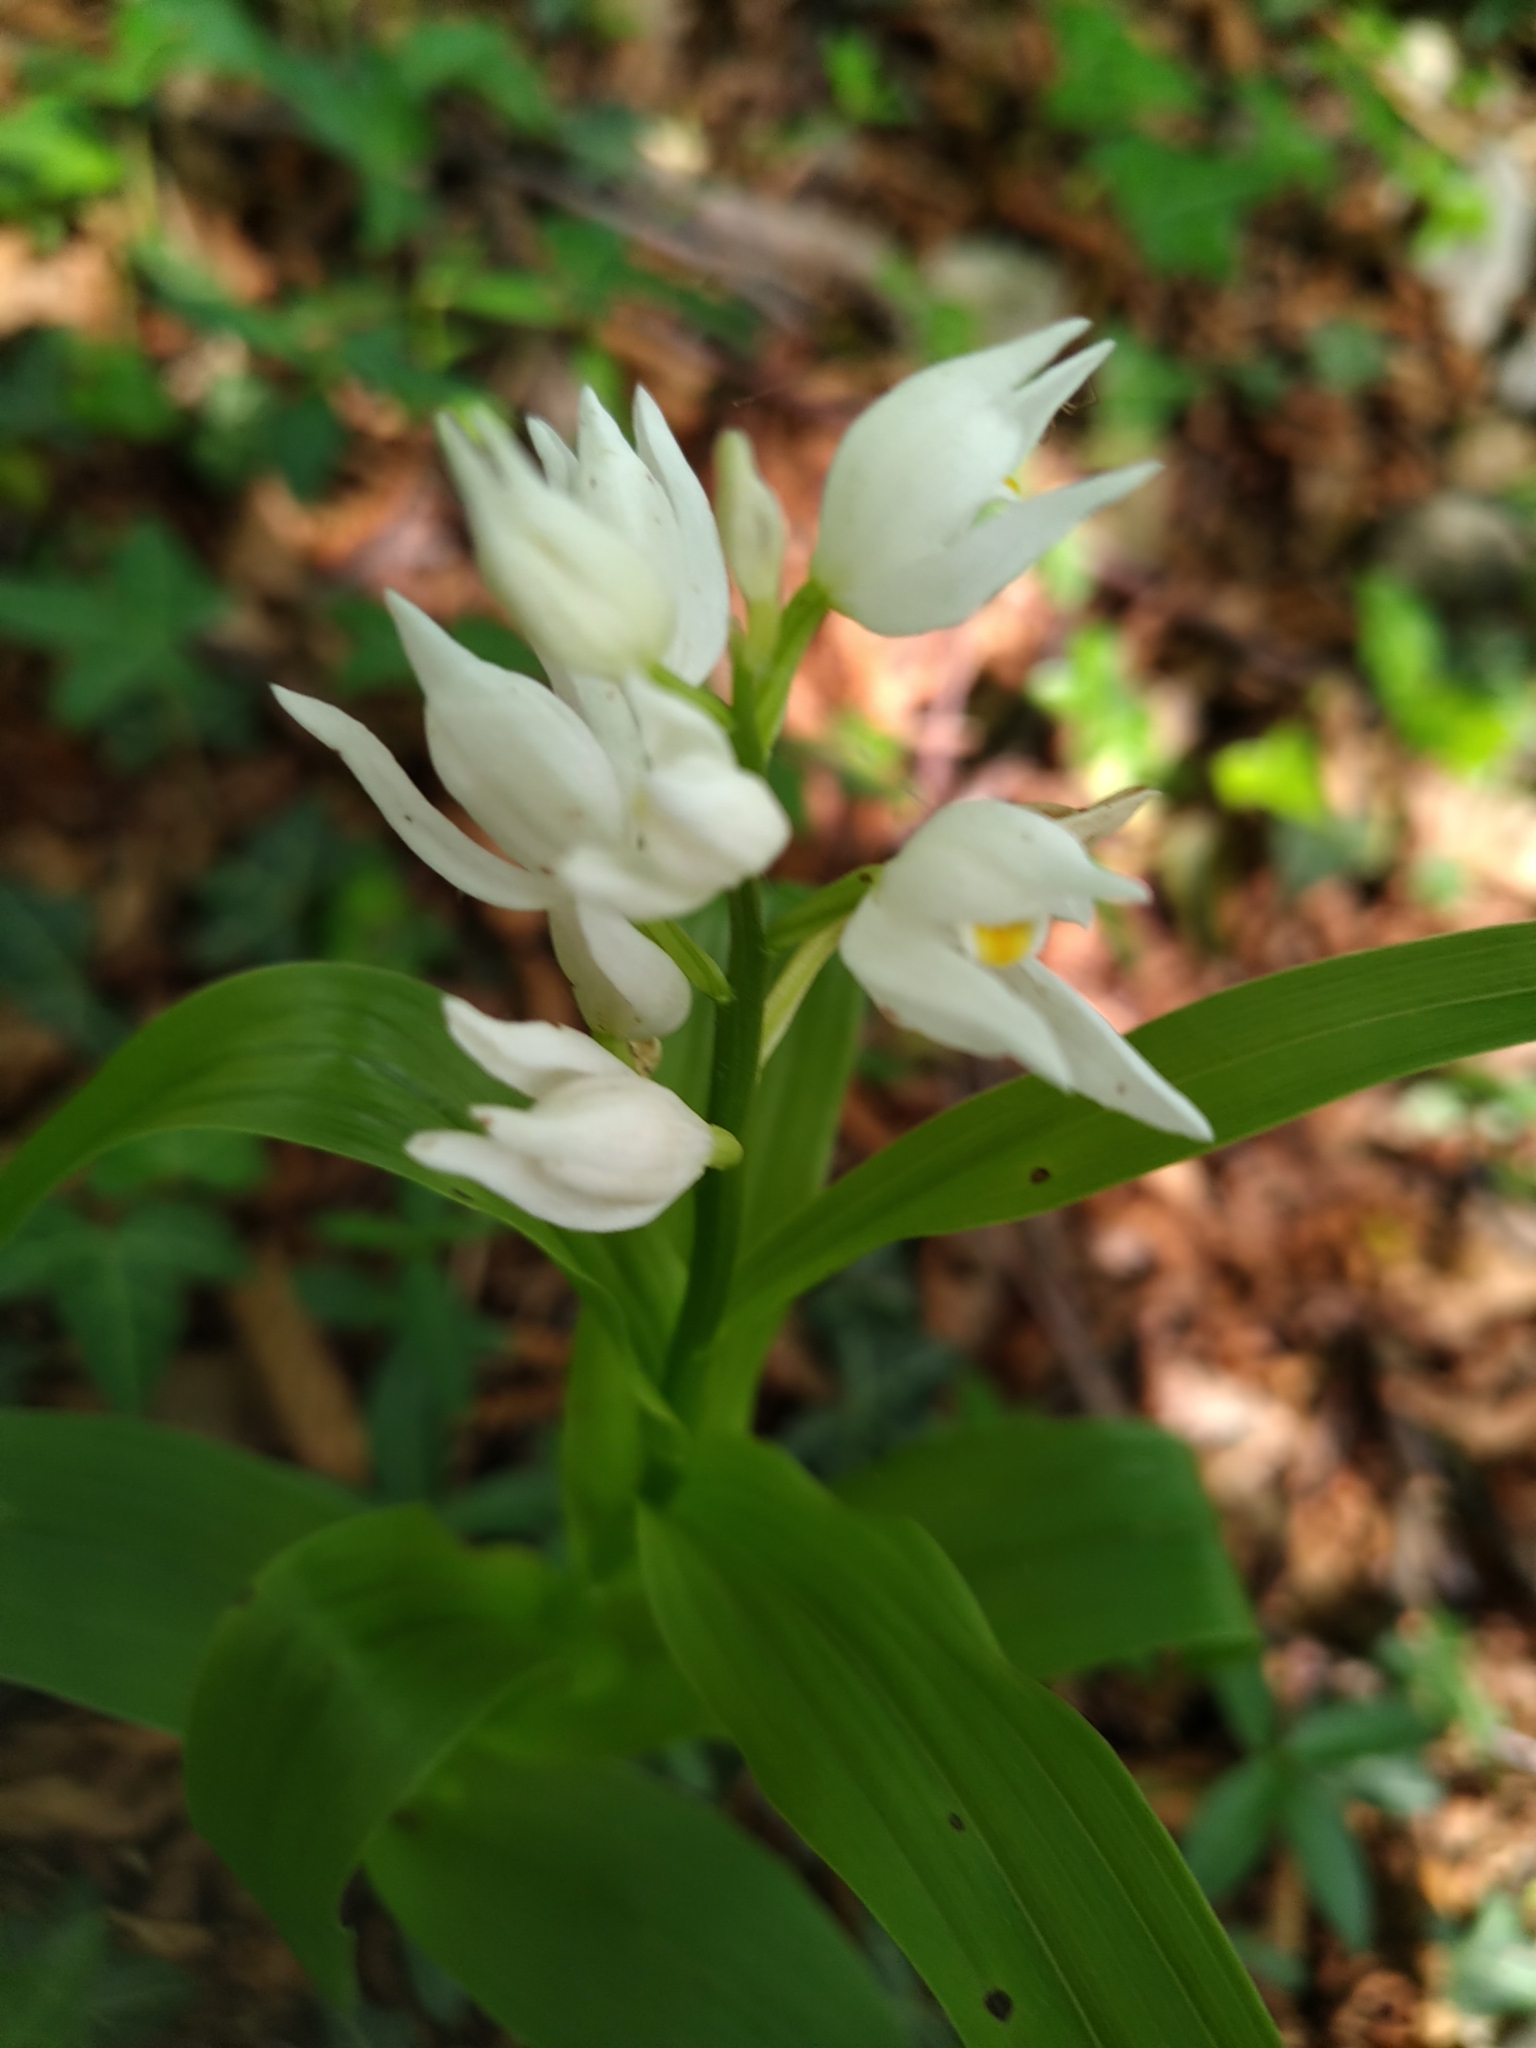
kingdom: Plantae
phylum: Tracheophyta
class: Liliopsida
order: Asparagales
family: Orchidaceae
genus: Cephalanthera
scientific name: Cephalanthera longifolia
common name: Narrow-leaved helleborine
